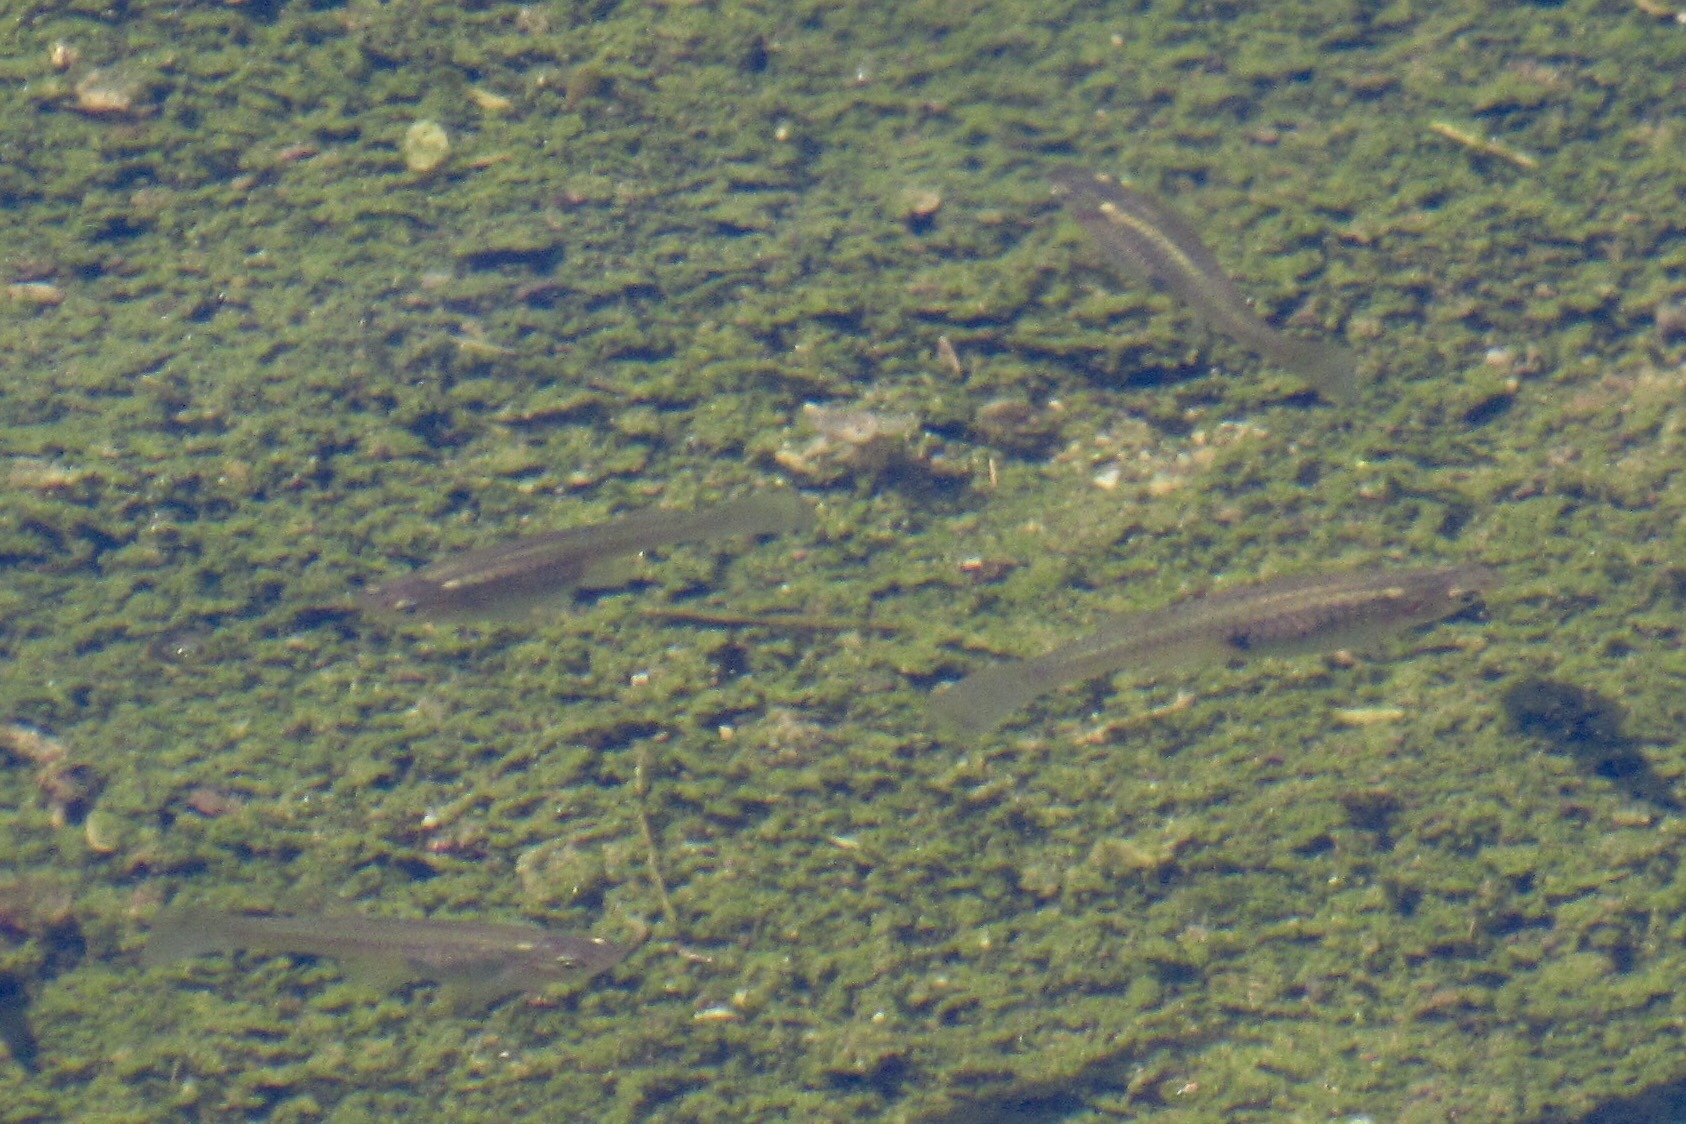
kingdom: Animalia
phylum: Chordata
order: Cyprinodontiformes
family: Poeciliidae
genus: Gambusia
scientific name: Gambusia affinis
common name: Mosquitofish
